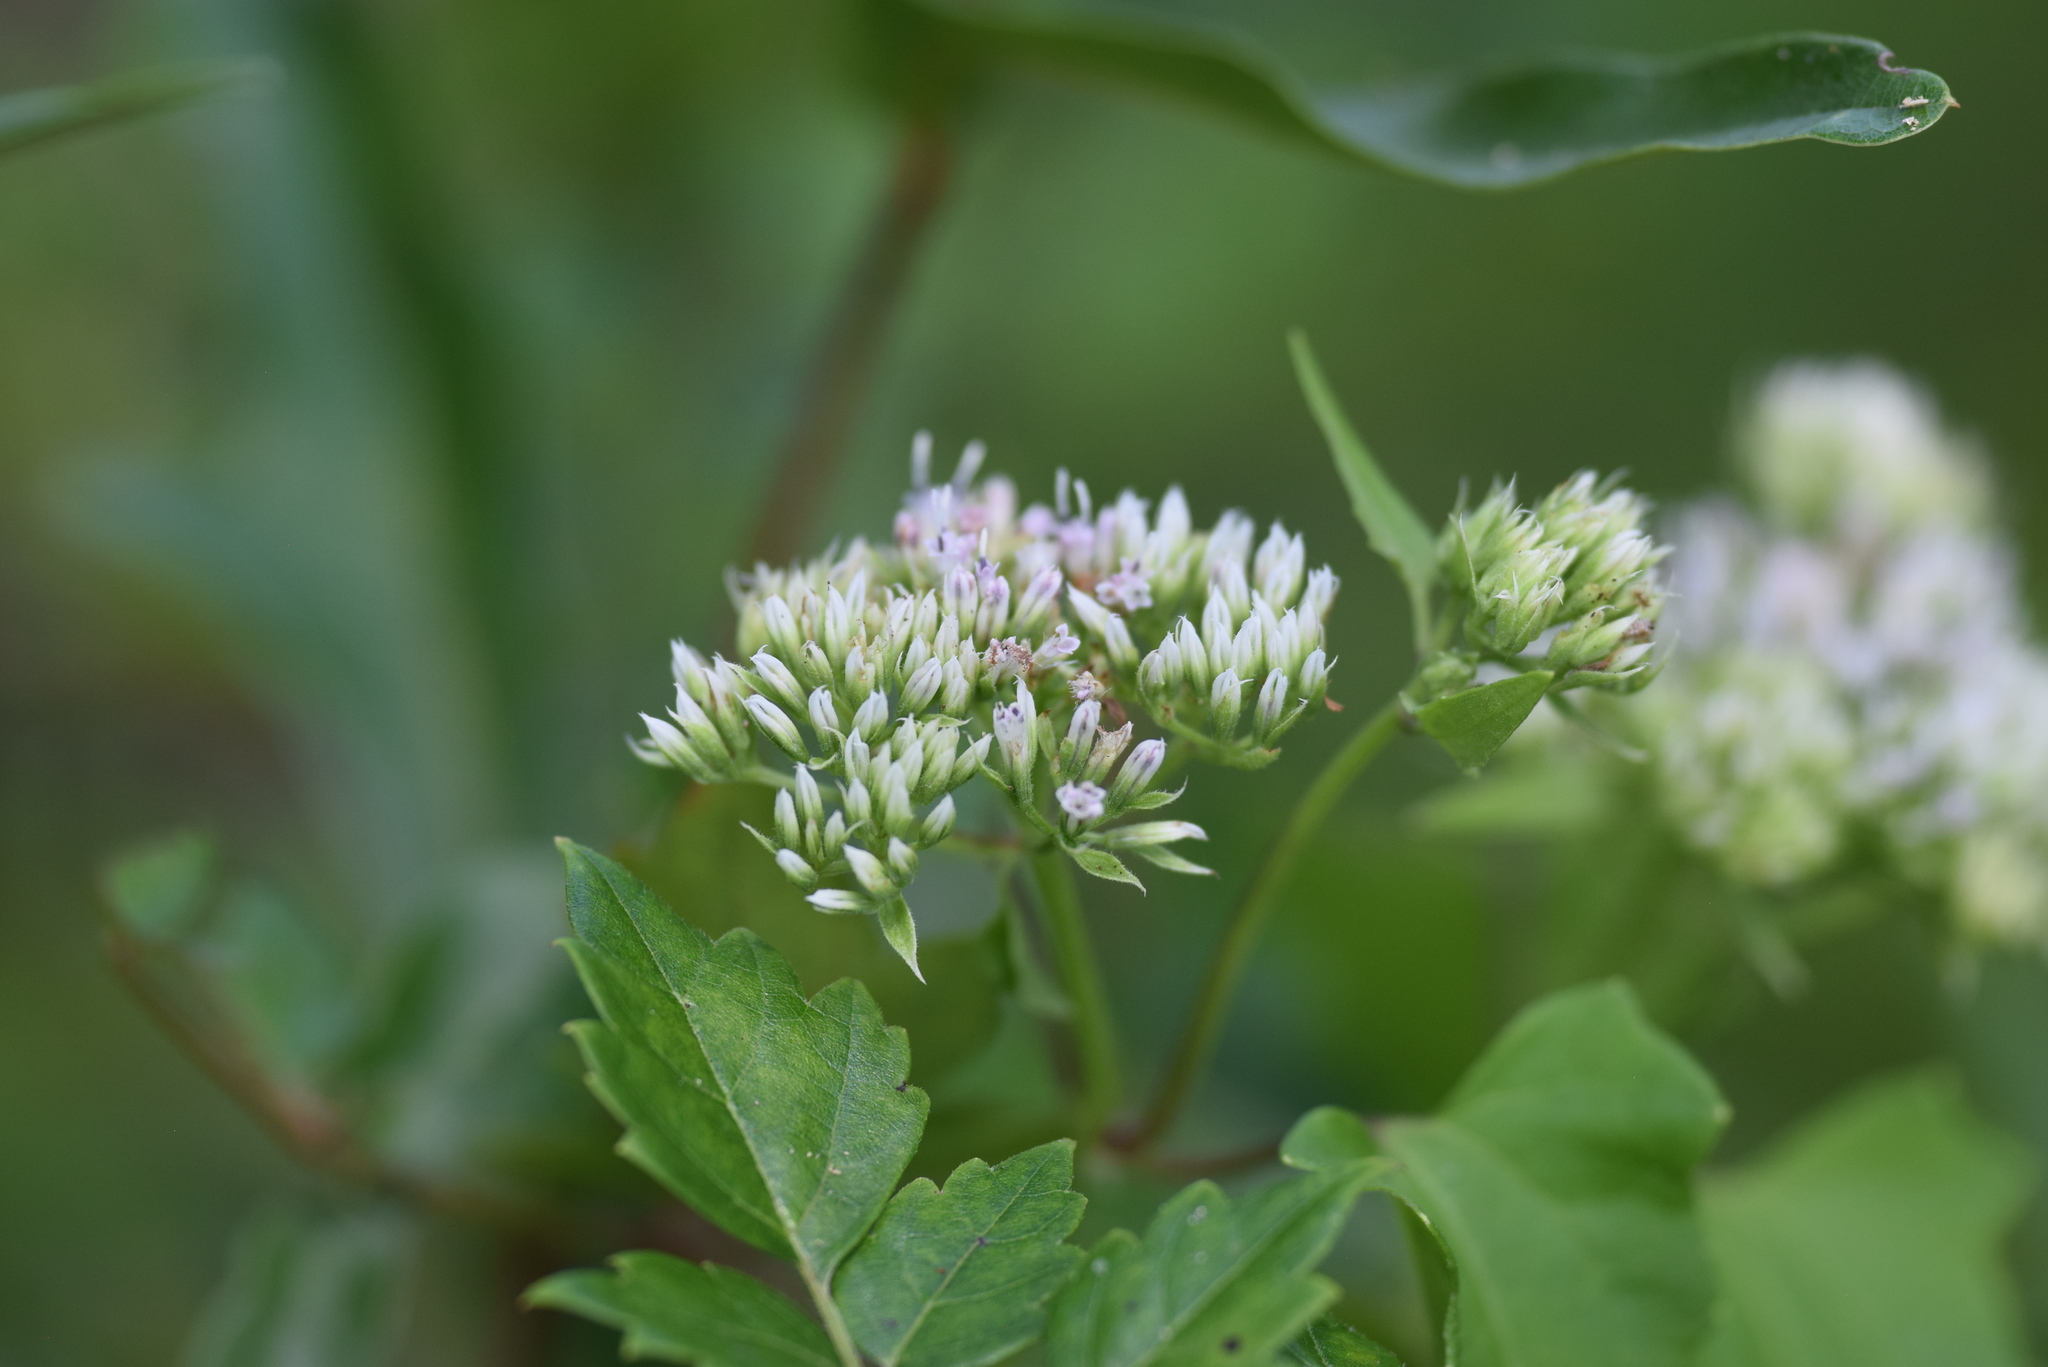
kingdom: Plantae
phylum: Tracheophyta
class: Magnoliopsida
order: Asterales
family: Asteraceae
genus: Mikania
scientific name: Mikania scandens
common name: Climbing hempvine
